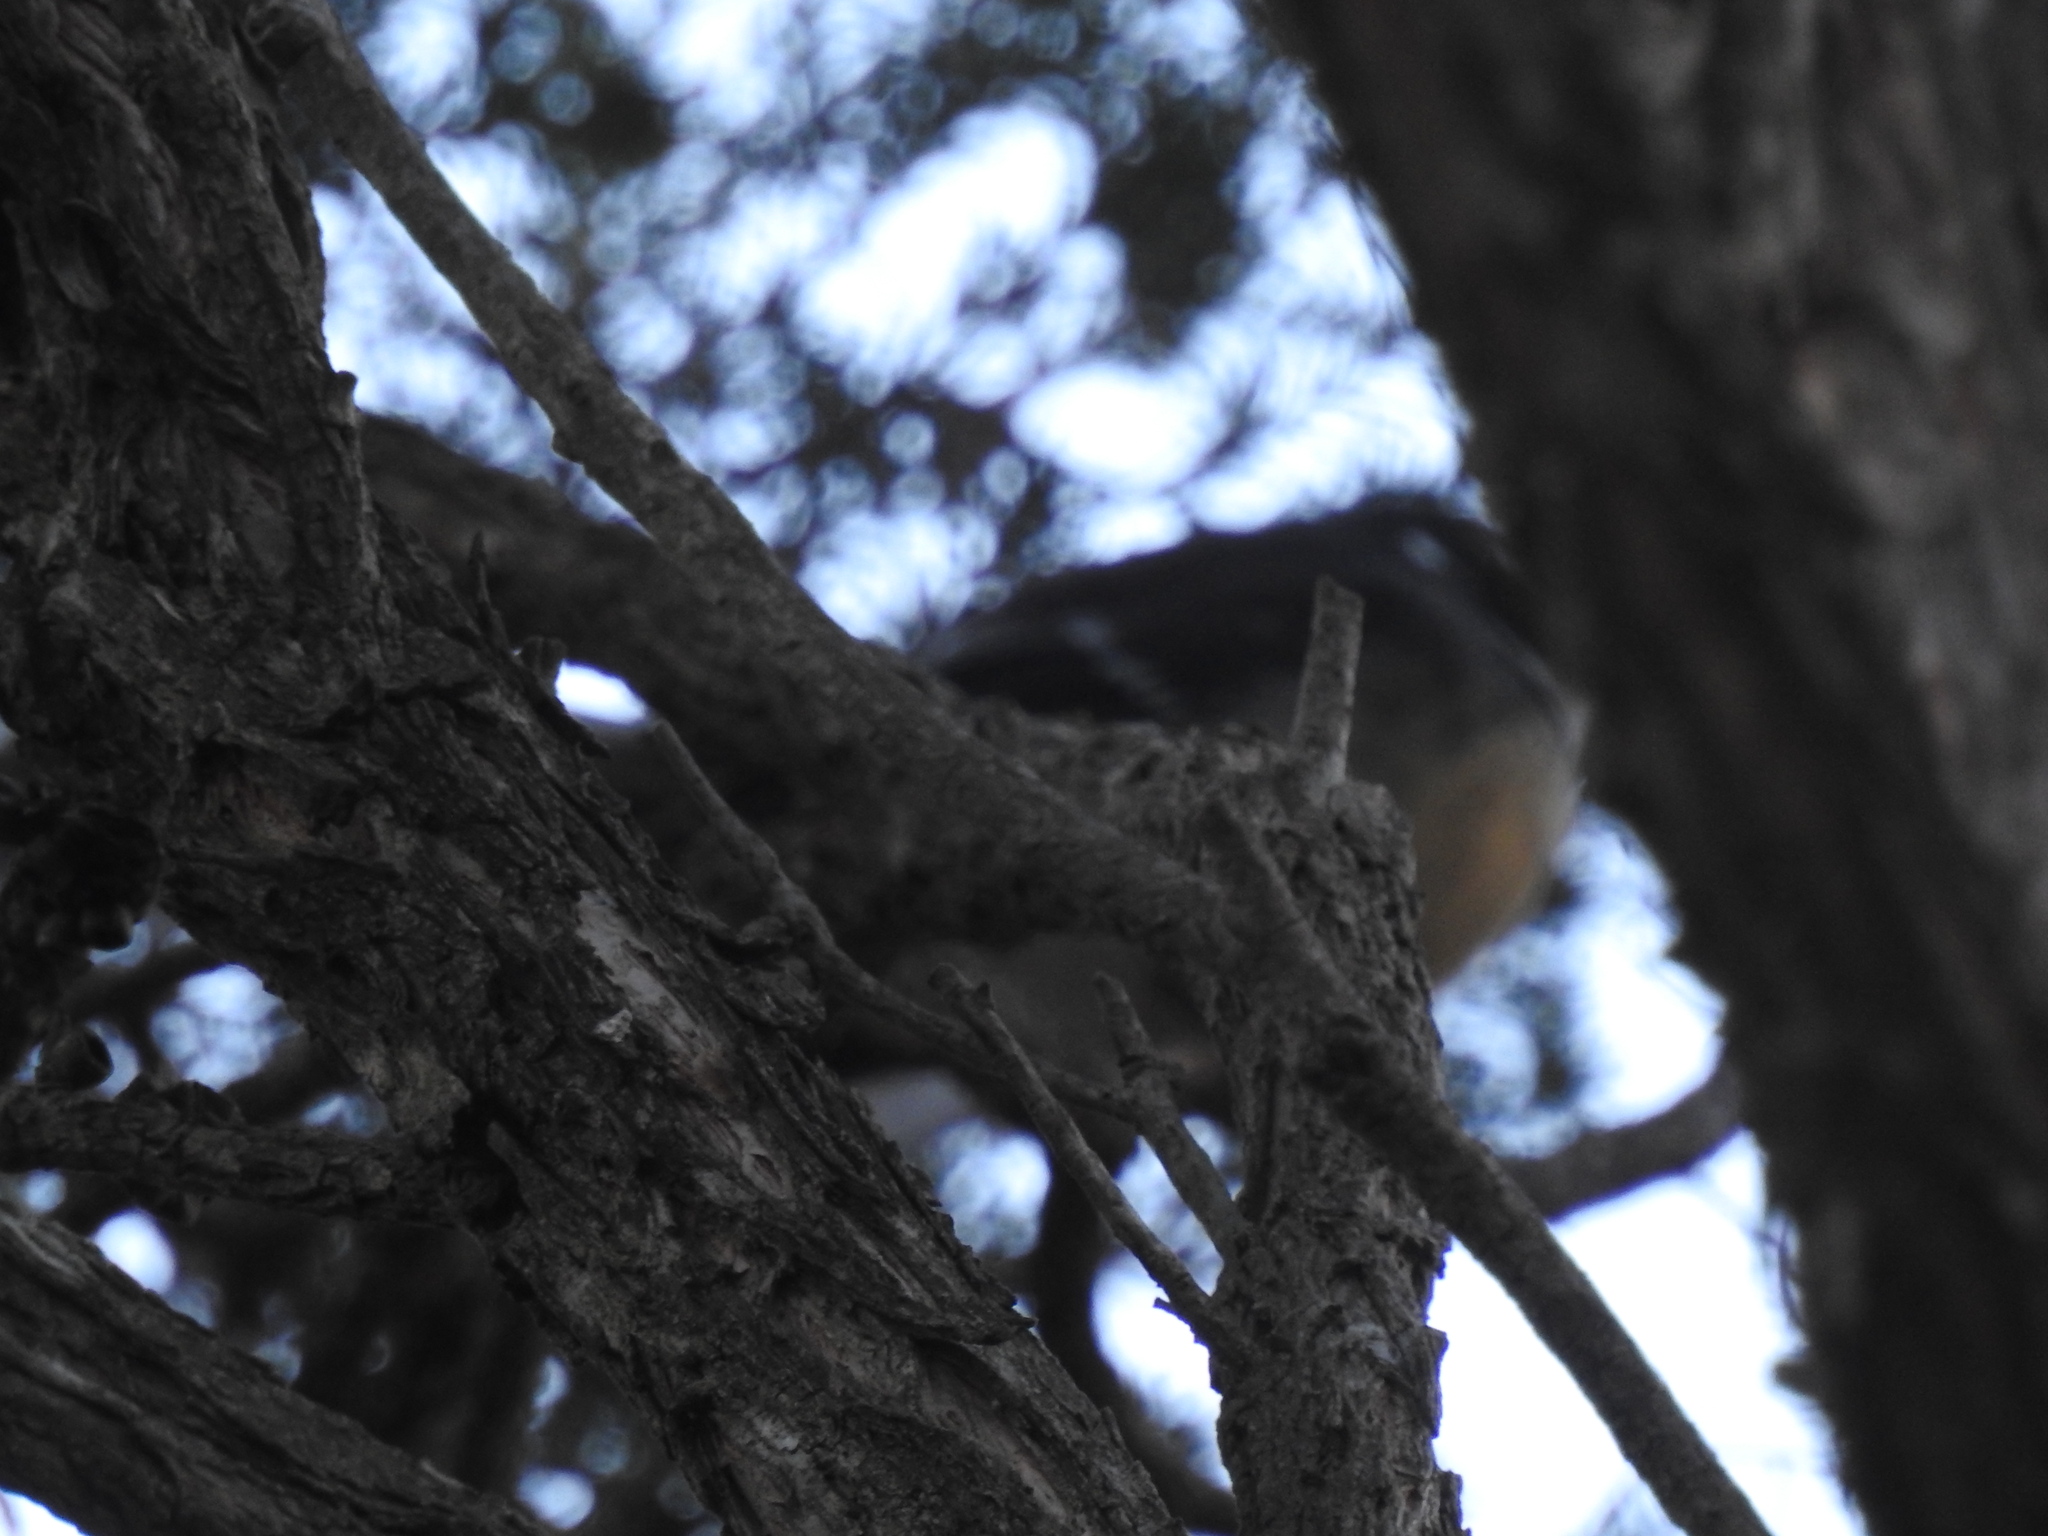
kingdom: Animalia
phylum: Chordata
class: Aves
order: Passeriformes
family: Rhipiduridae
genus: Rhipidura
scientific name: Rhipidura albiscapa
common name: Grey fantail
